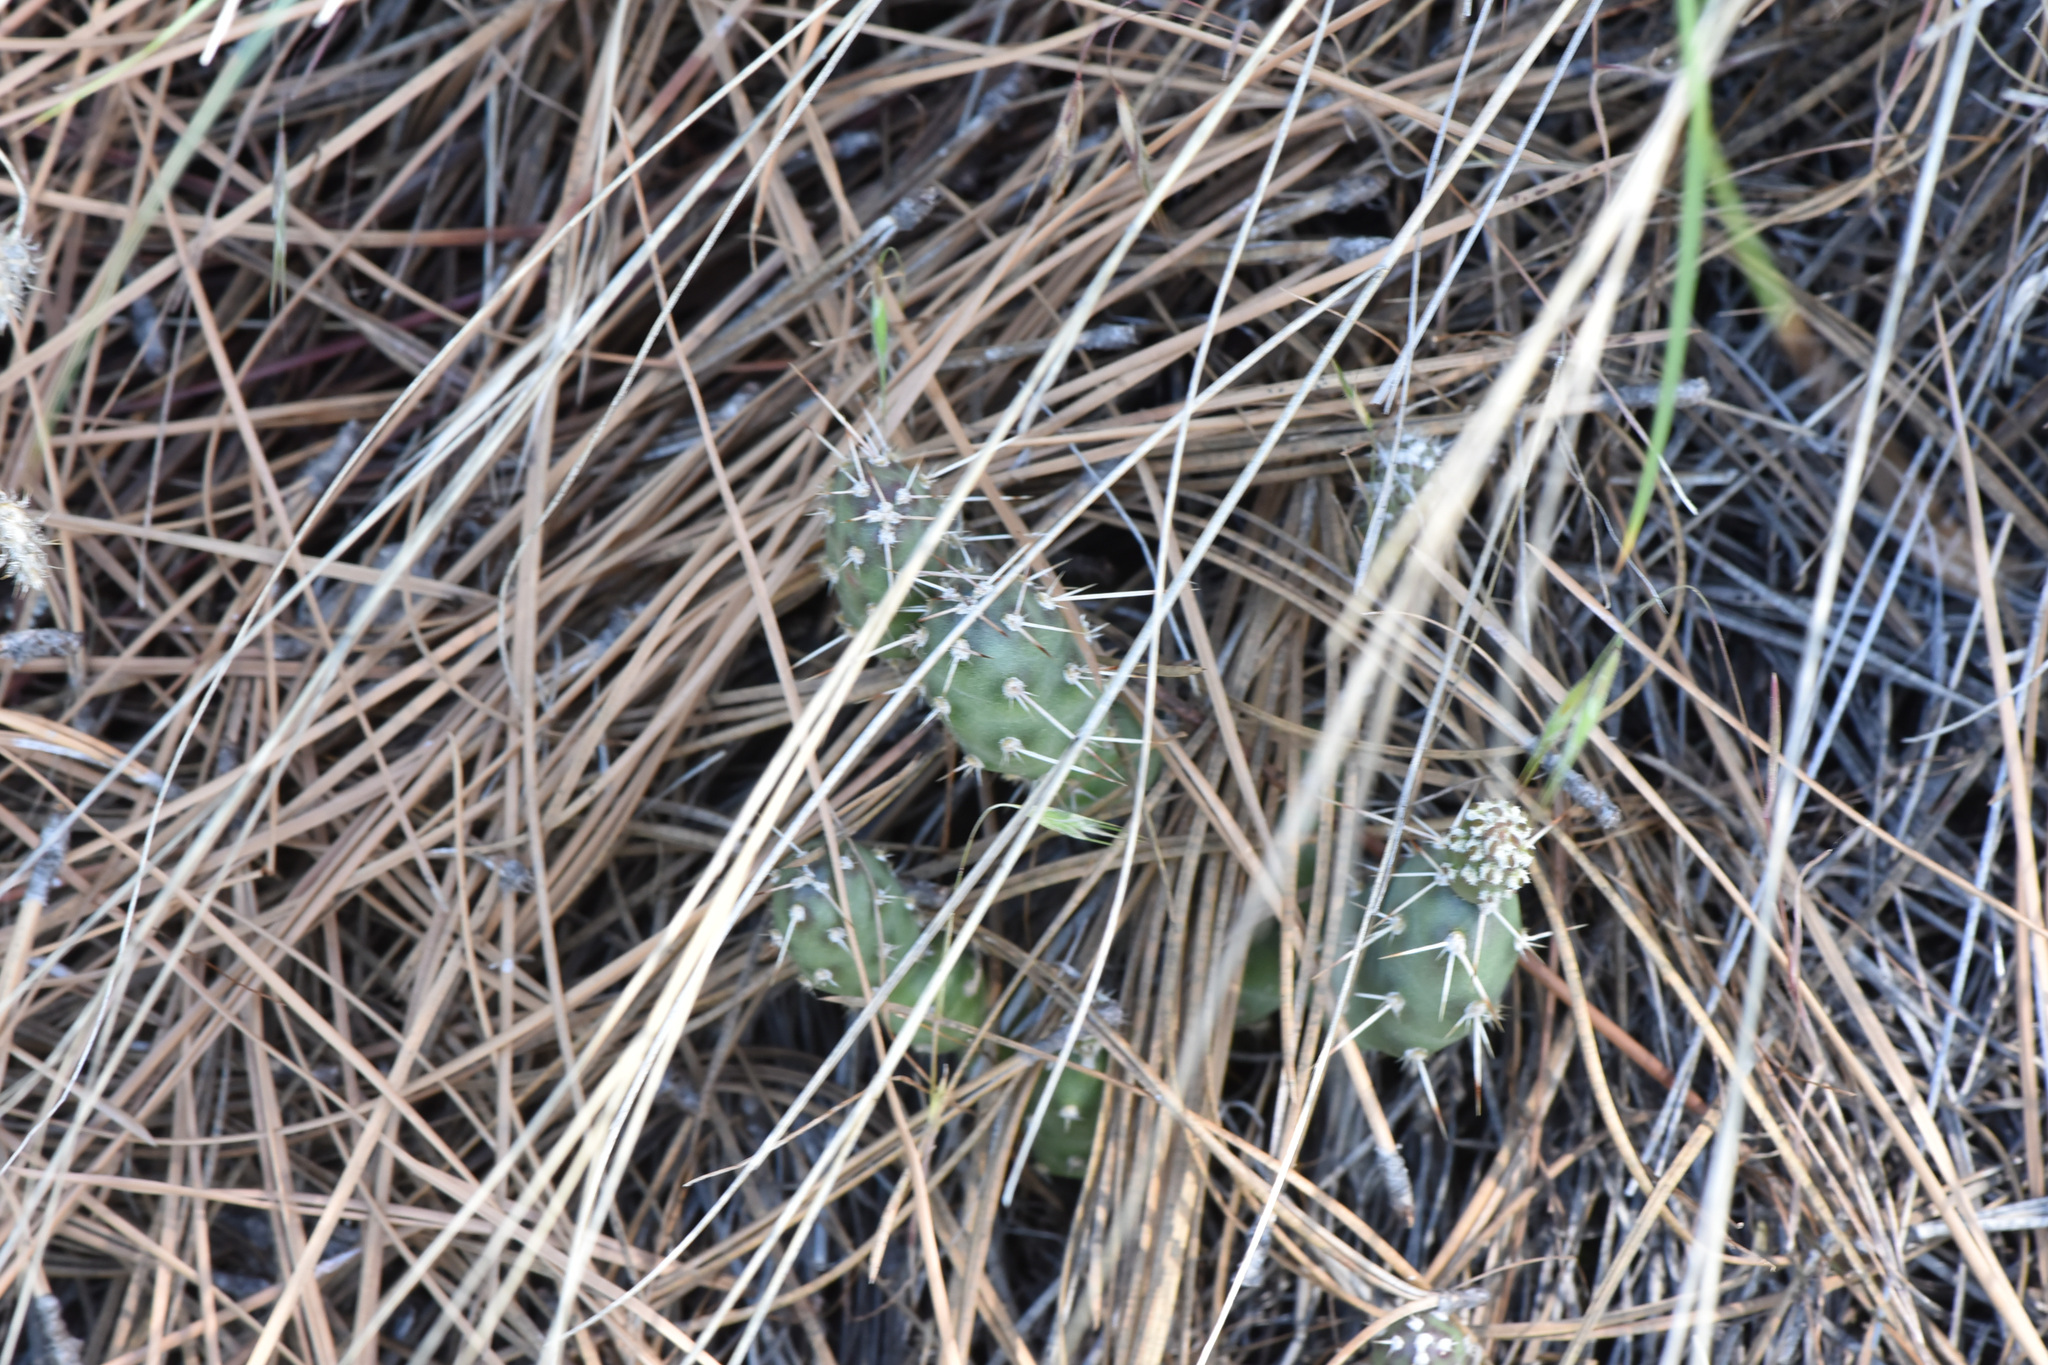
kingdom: Plantae
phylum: Tracheophyta
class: Magnoliopsida
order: Caryophyllales
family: Cactaceae
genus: Opuntia
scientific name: Opuntia fragilis
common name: Brittle cactus
